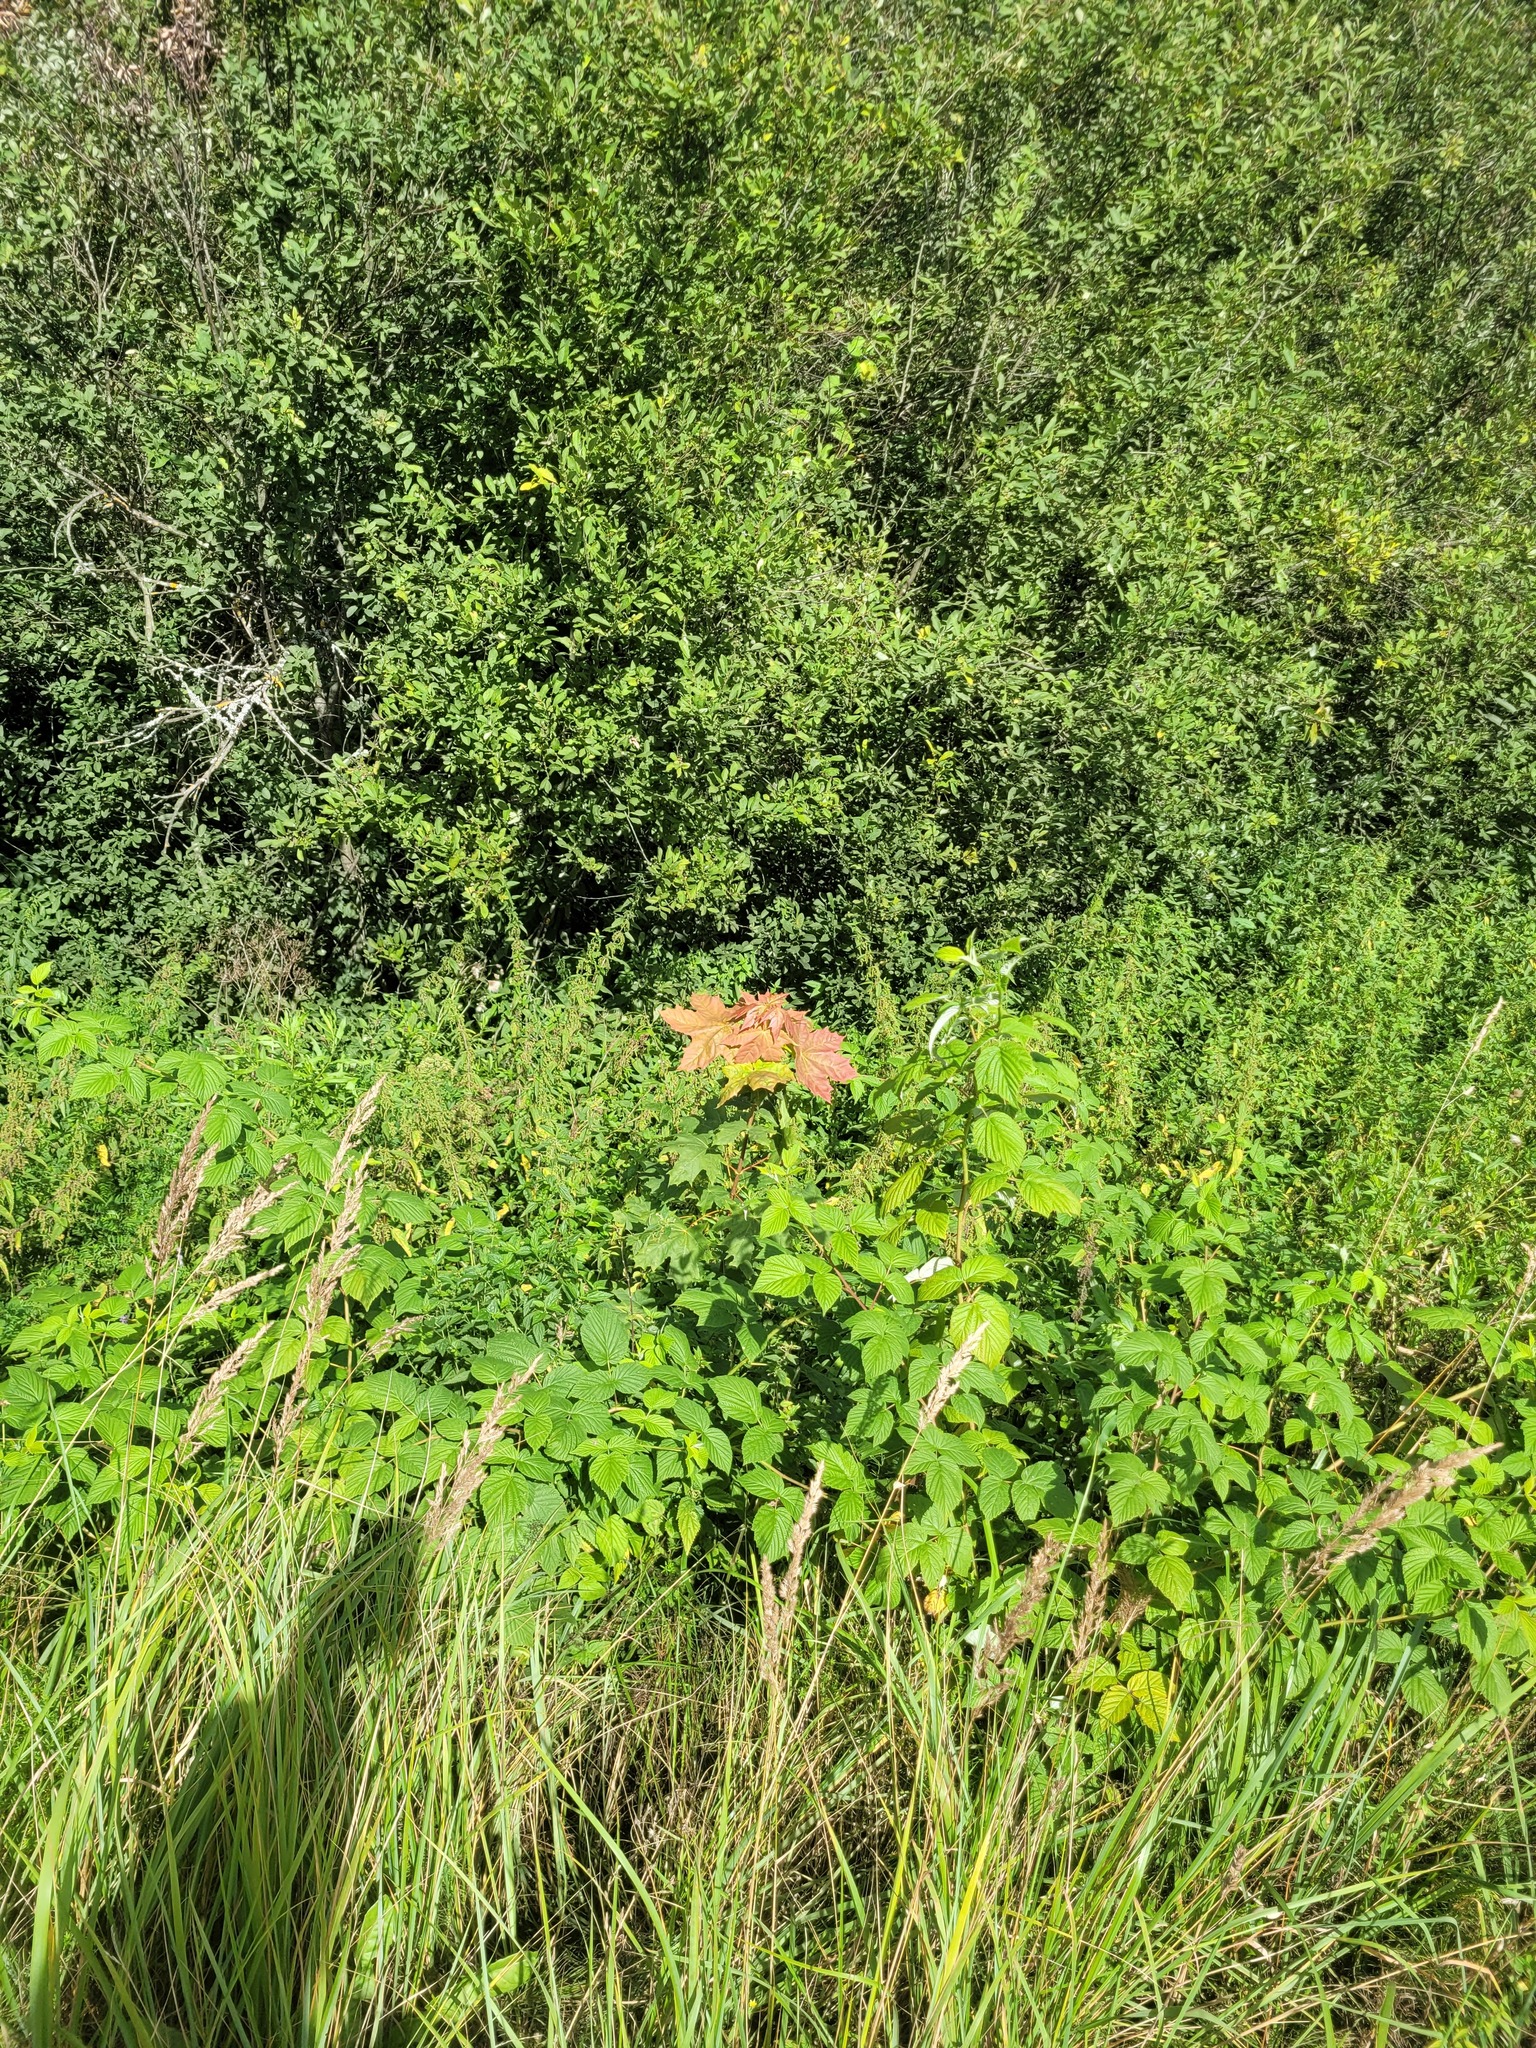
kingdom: Plantae
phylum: Tracheophyta
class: Magnoliopsida
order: Sapindales
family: Sapindaceae
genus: Acer
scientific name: Acer platanoides
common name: Norway maple
